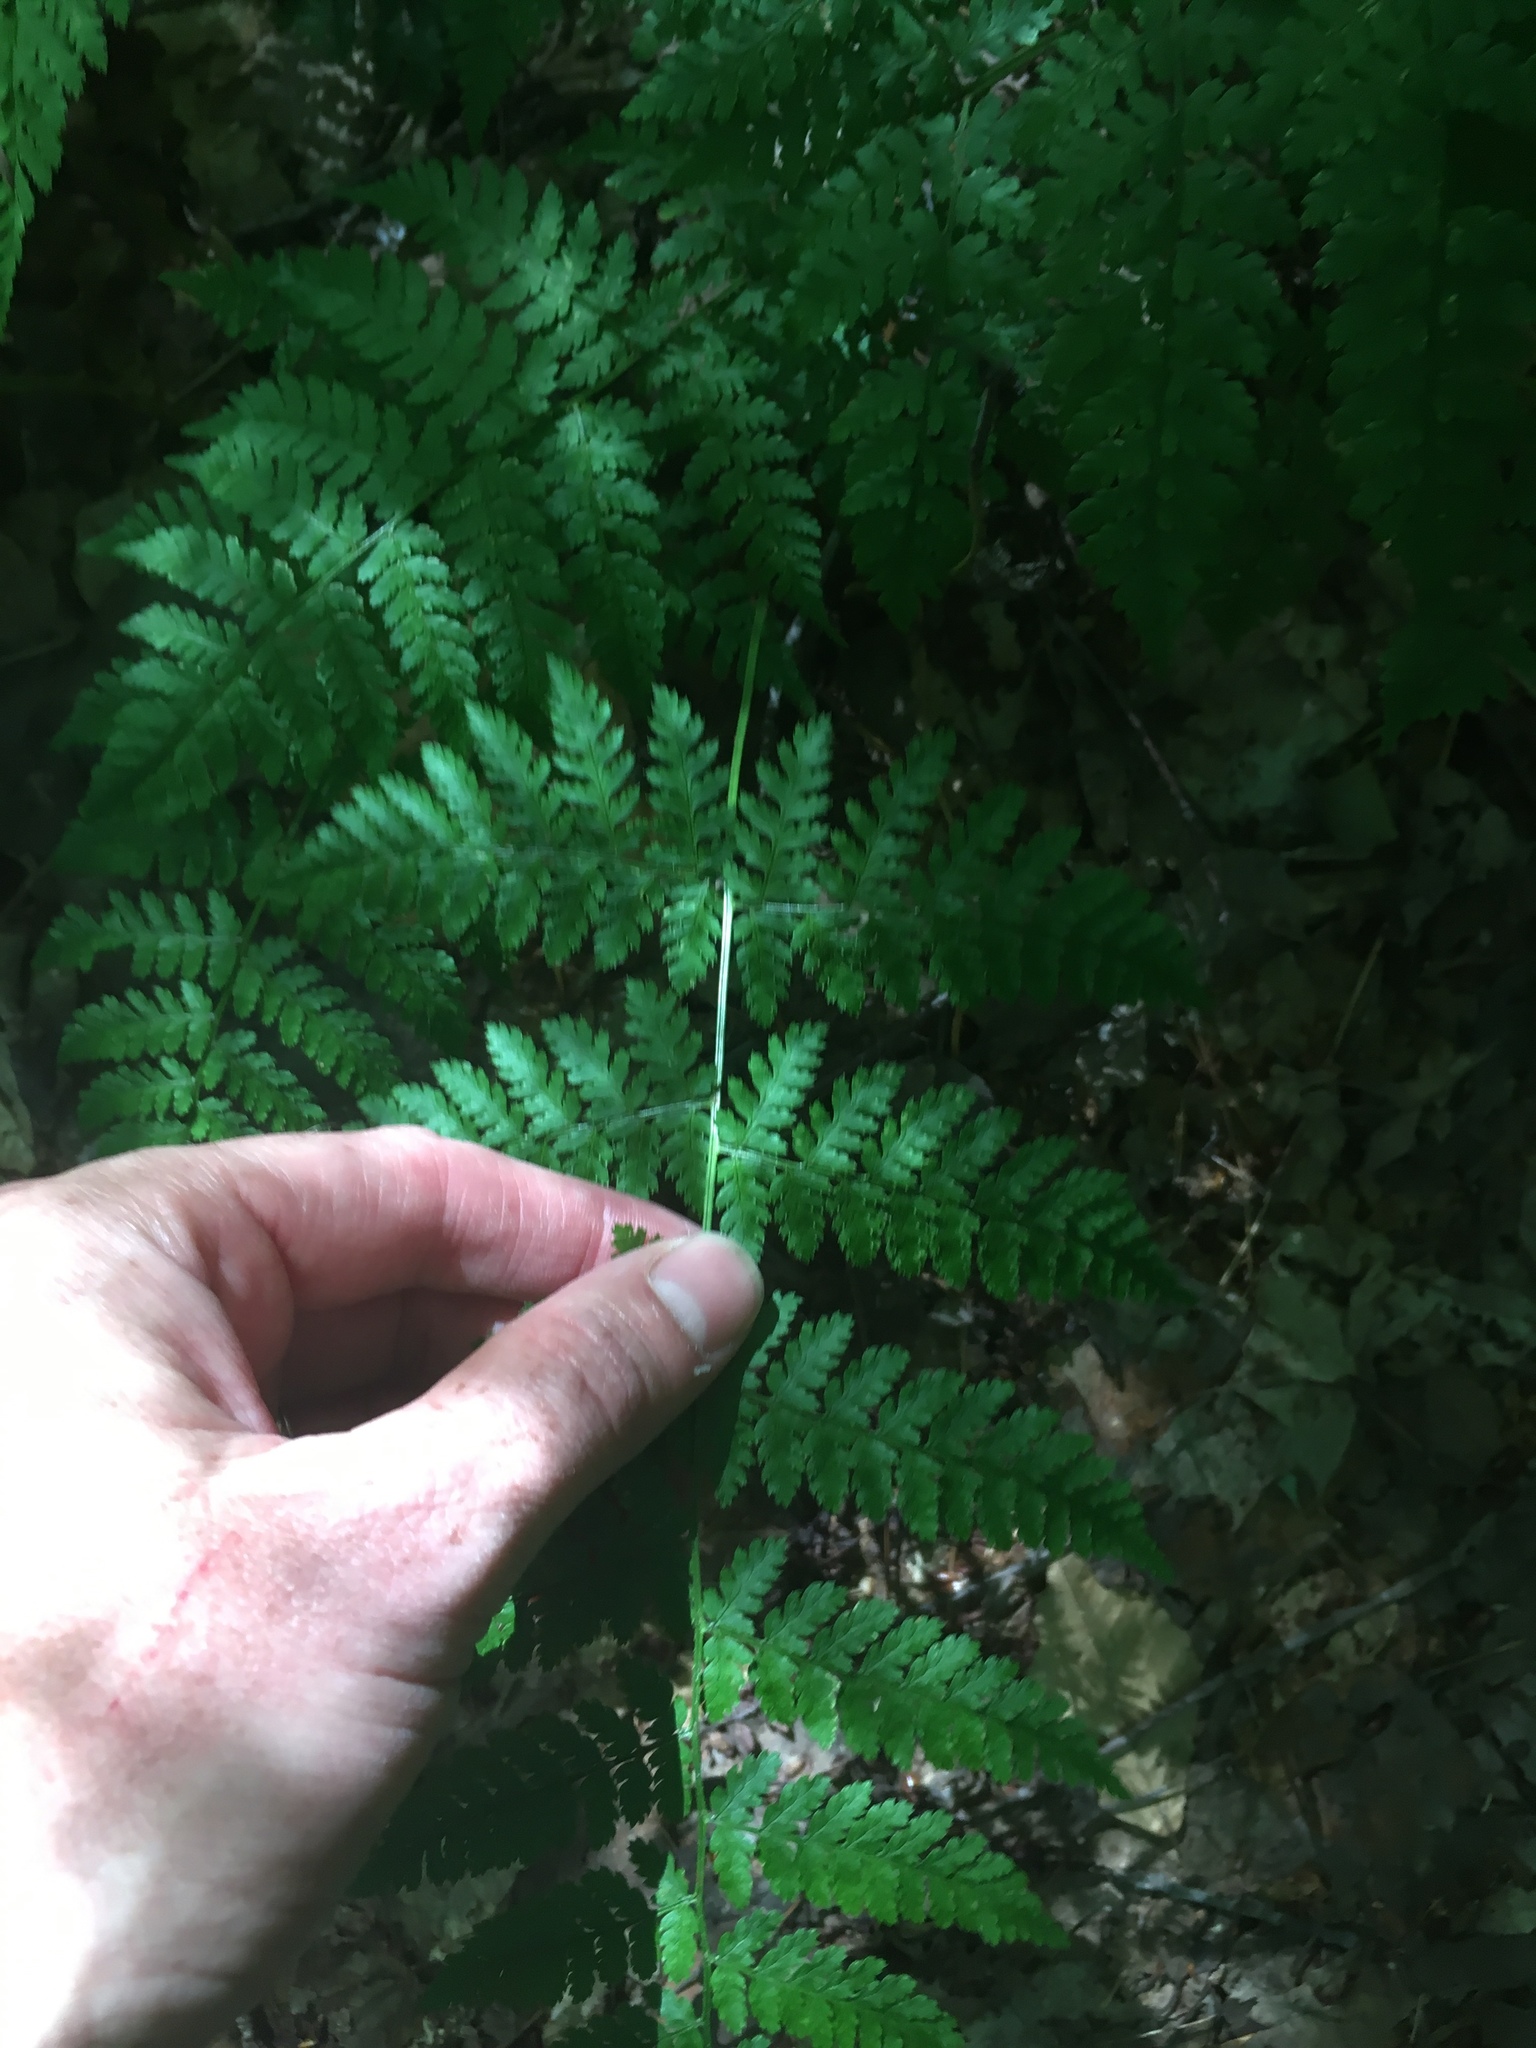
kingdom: Plantae
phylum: Tracheophyta
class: Polypodiopsida
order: Polypodiales
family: Dryopteridaceae
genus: Dryopteris
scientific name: Dryopteris intermedia
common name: Evergreen wood fern
